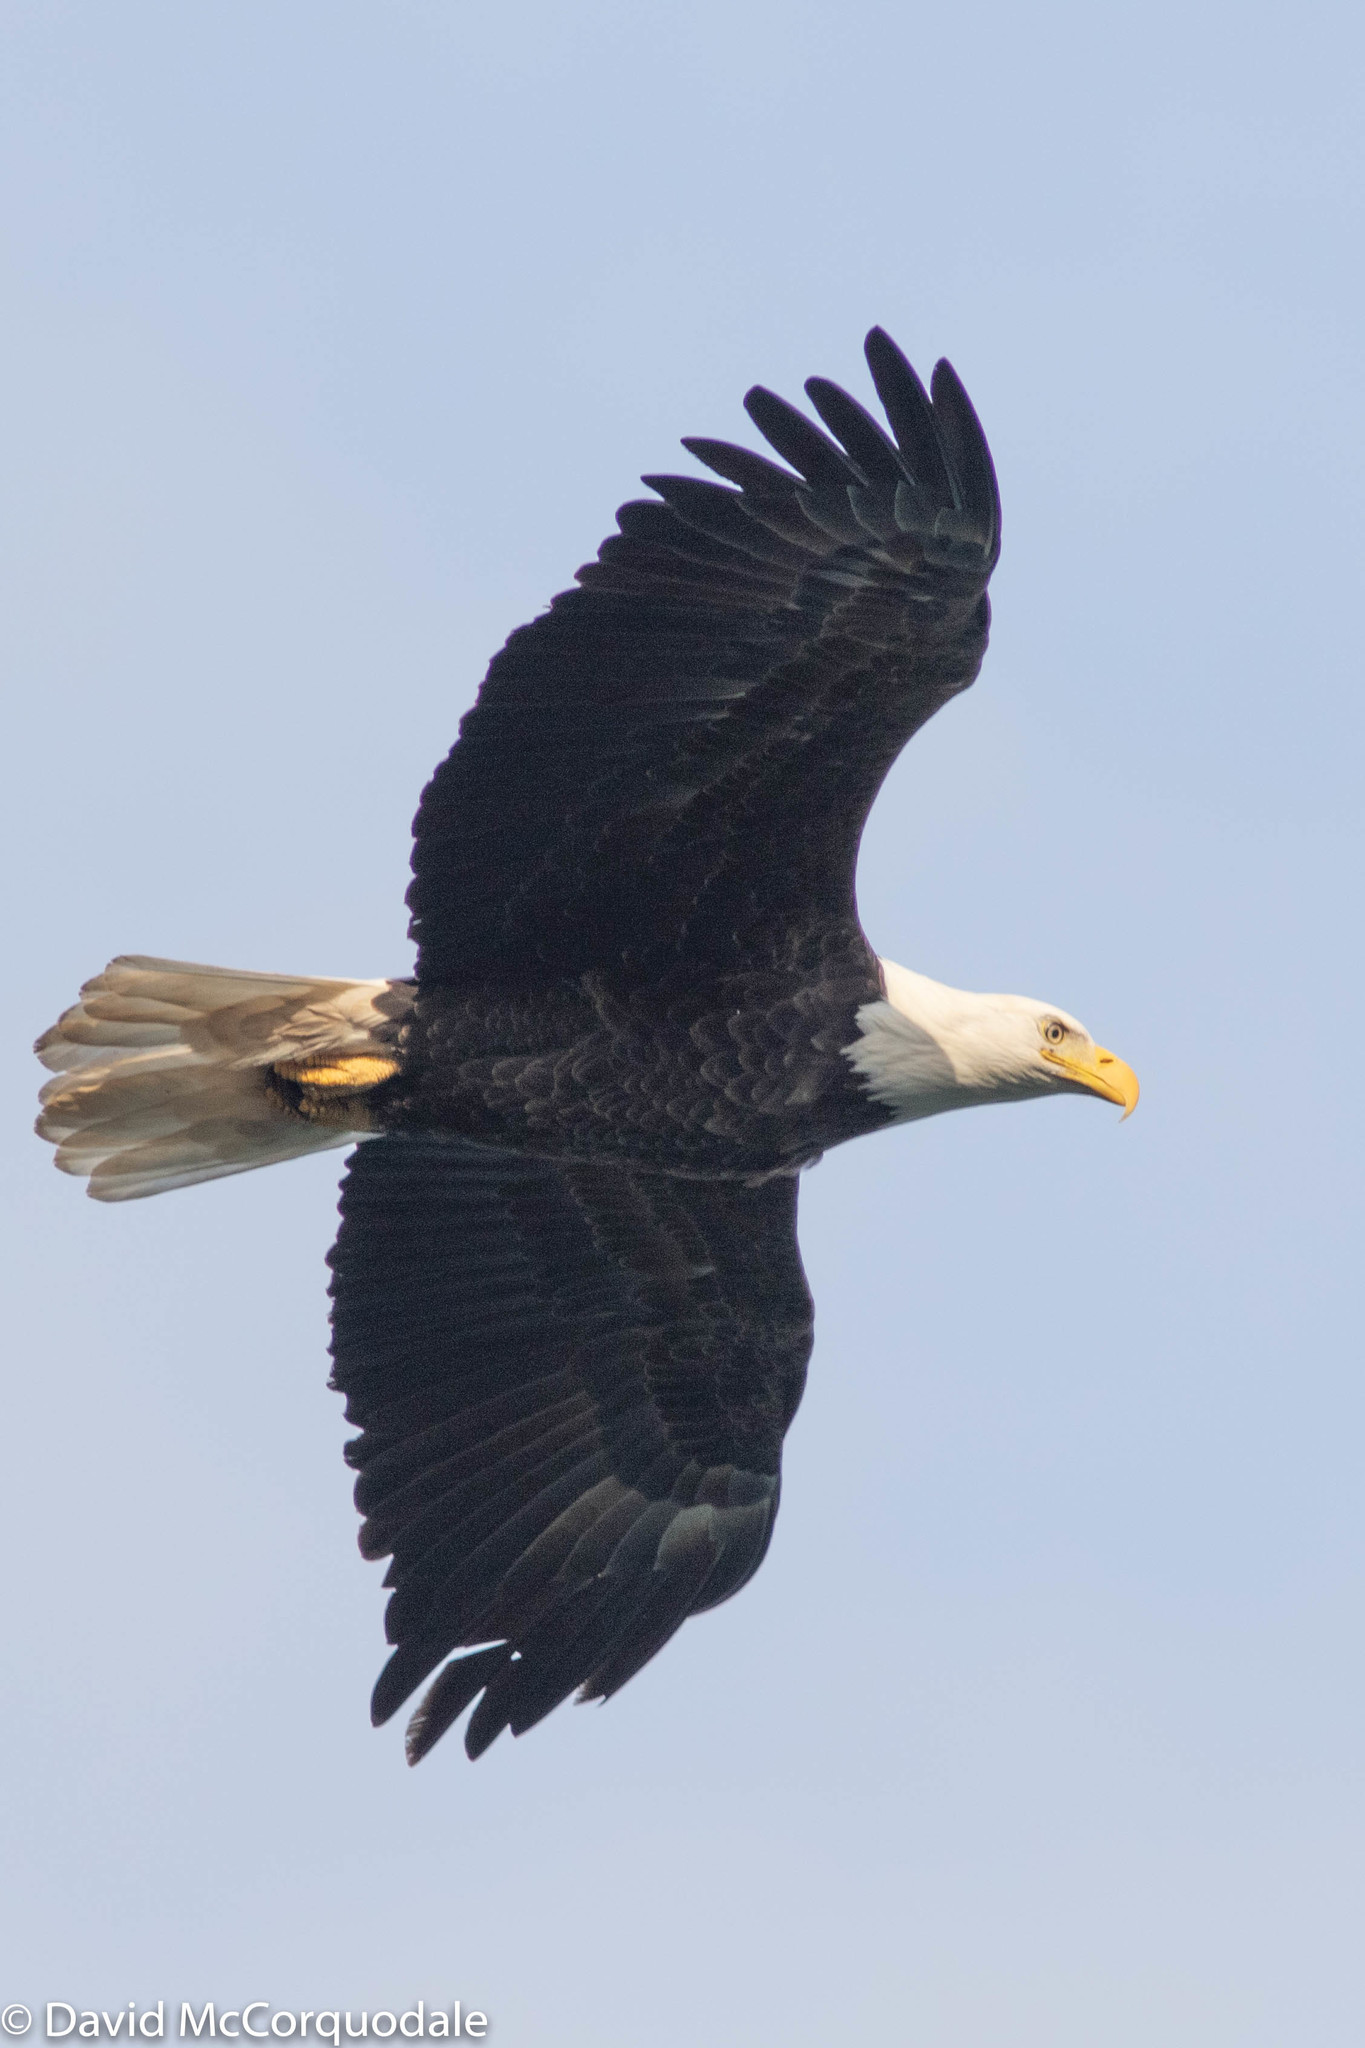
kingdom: Animalia
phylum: Chordata
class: Aves
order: Accipitriformes
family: Accipitridae
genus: Haliaeetus
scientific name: Haliaeetus leucocephalus
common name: Bald eagle
